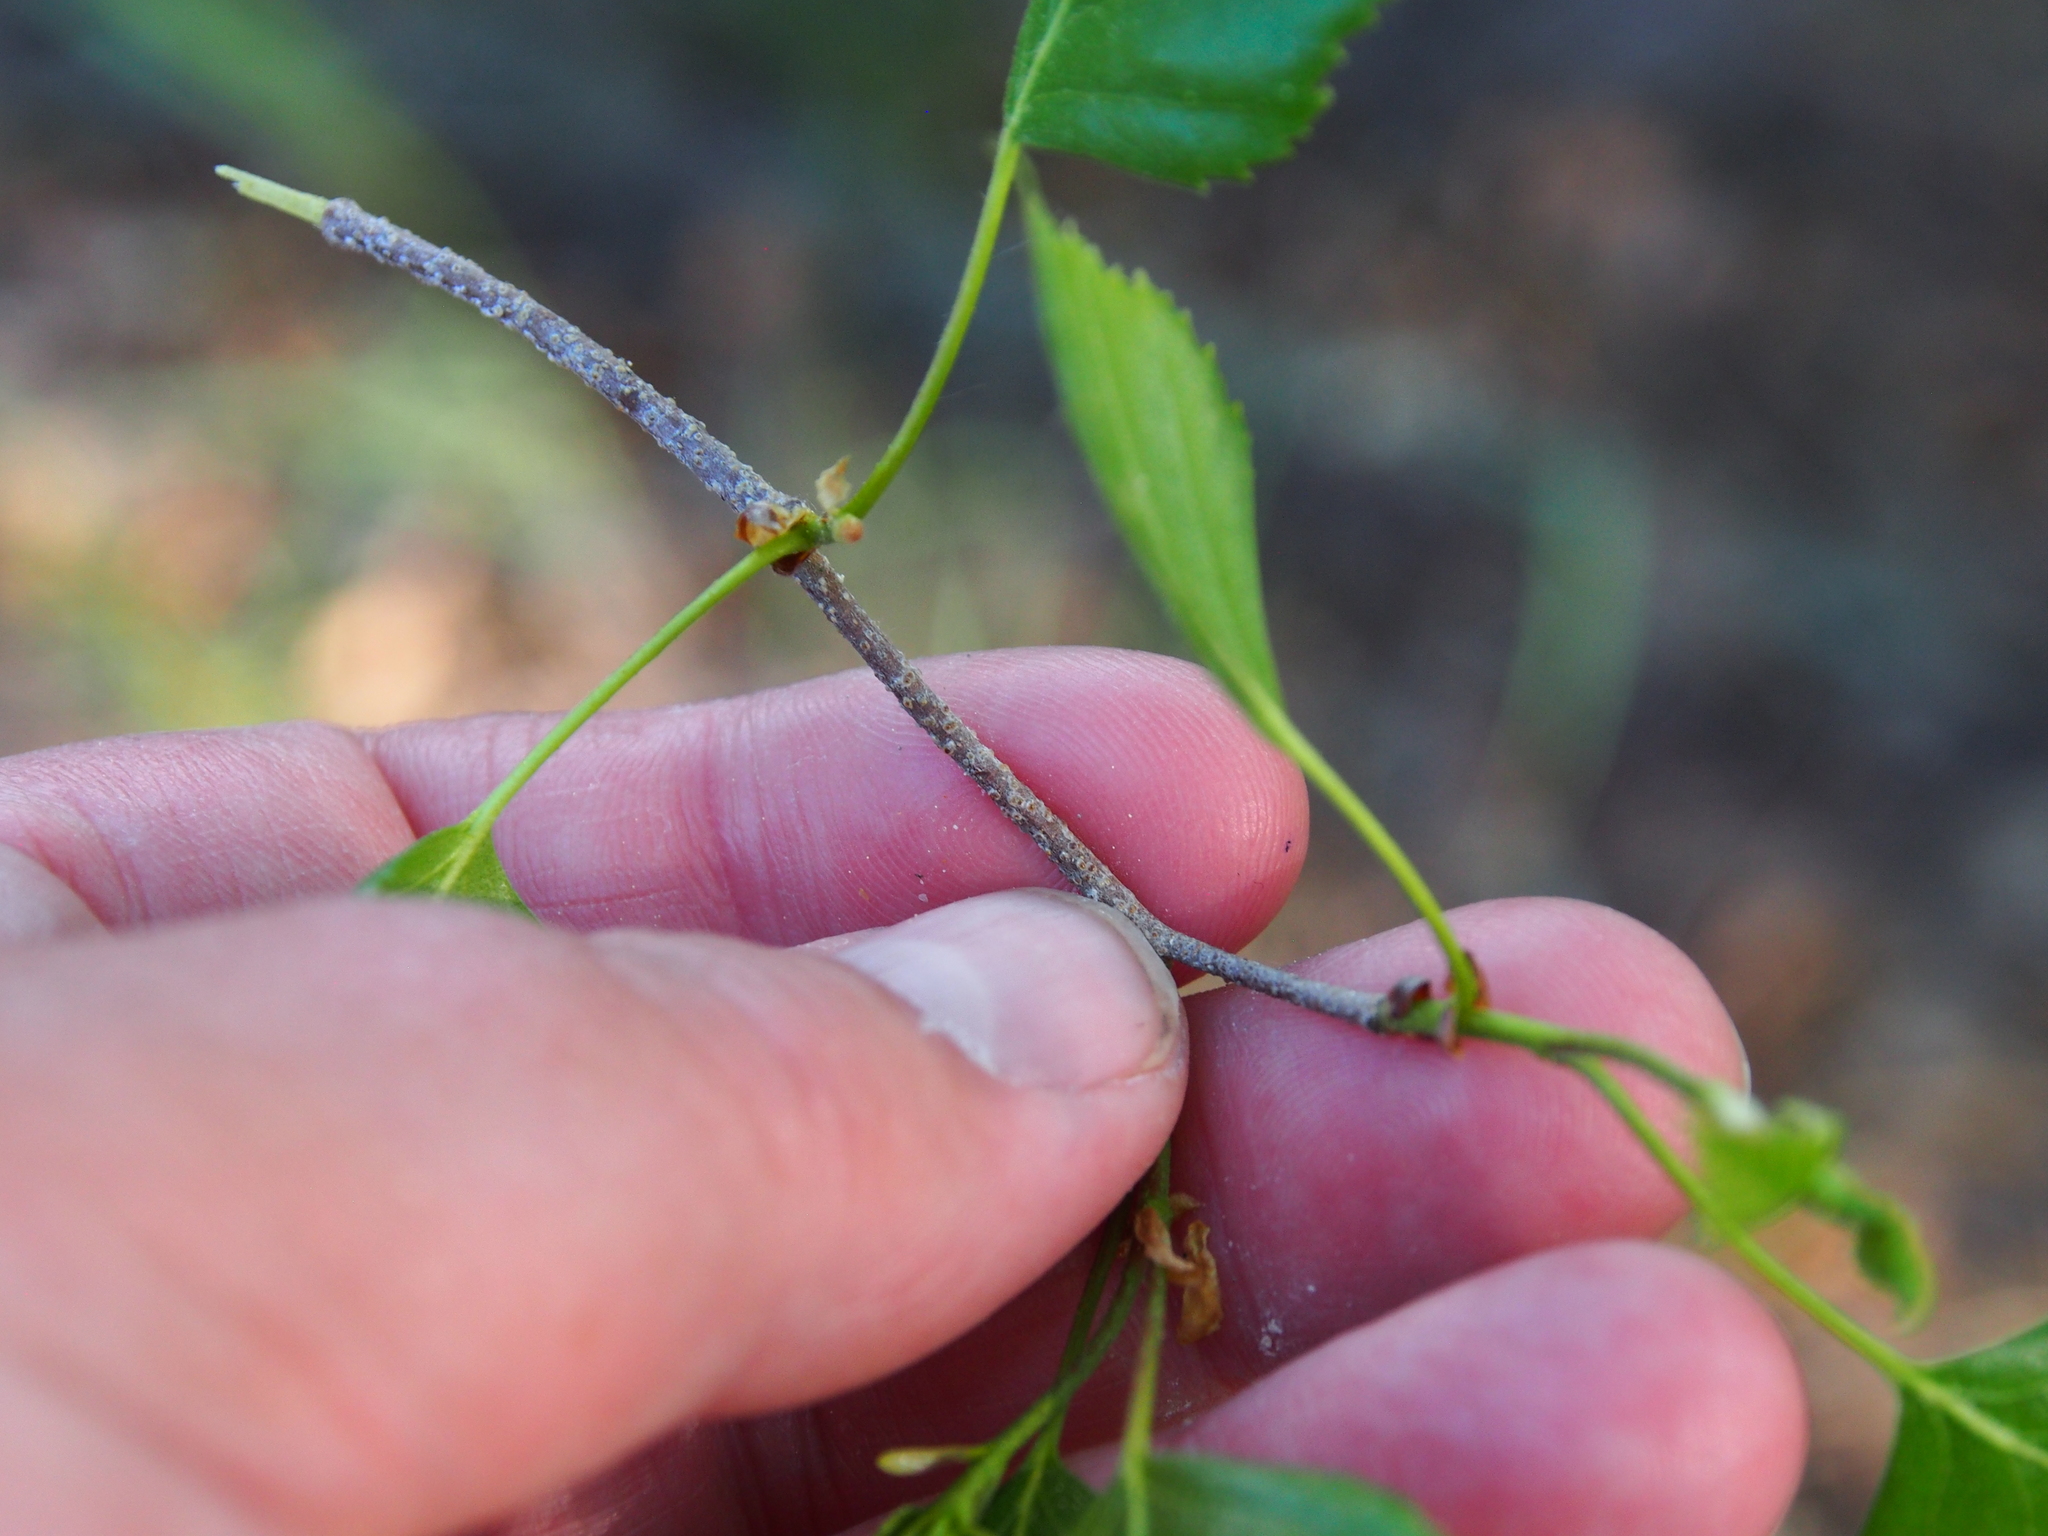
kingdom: Plantae
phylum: Tracheophyta
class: Magnoliopsida
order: Fagales
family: Betulaceae
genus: Betula
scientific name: Betula pendula
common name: Silver birch
